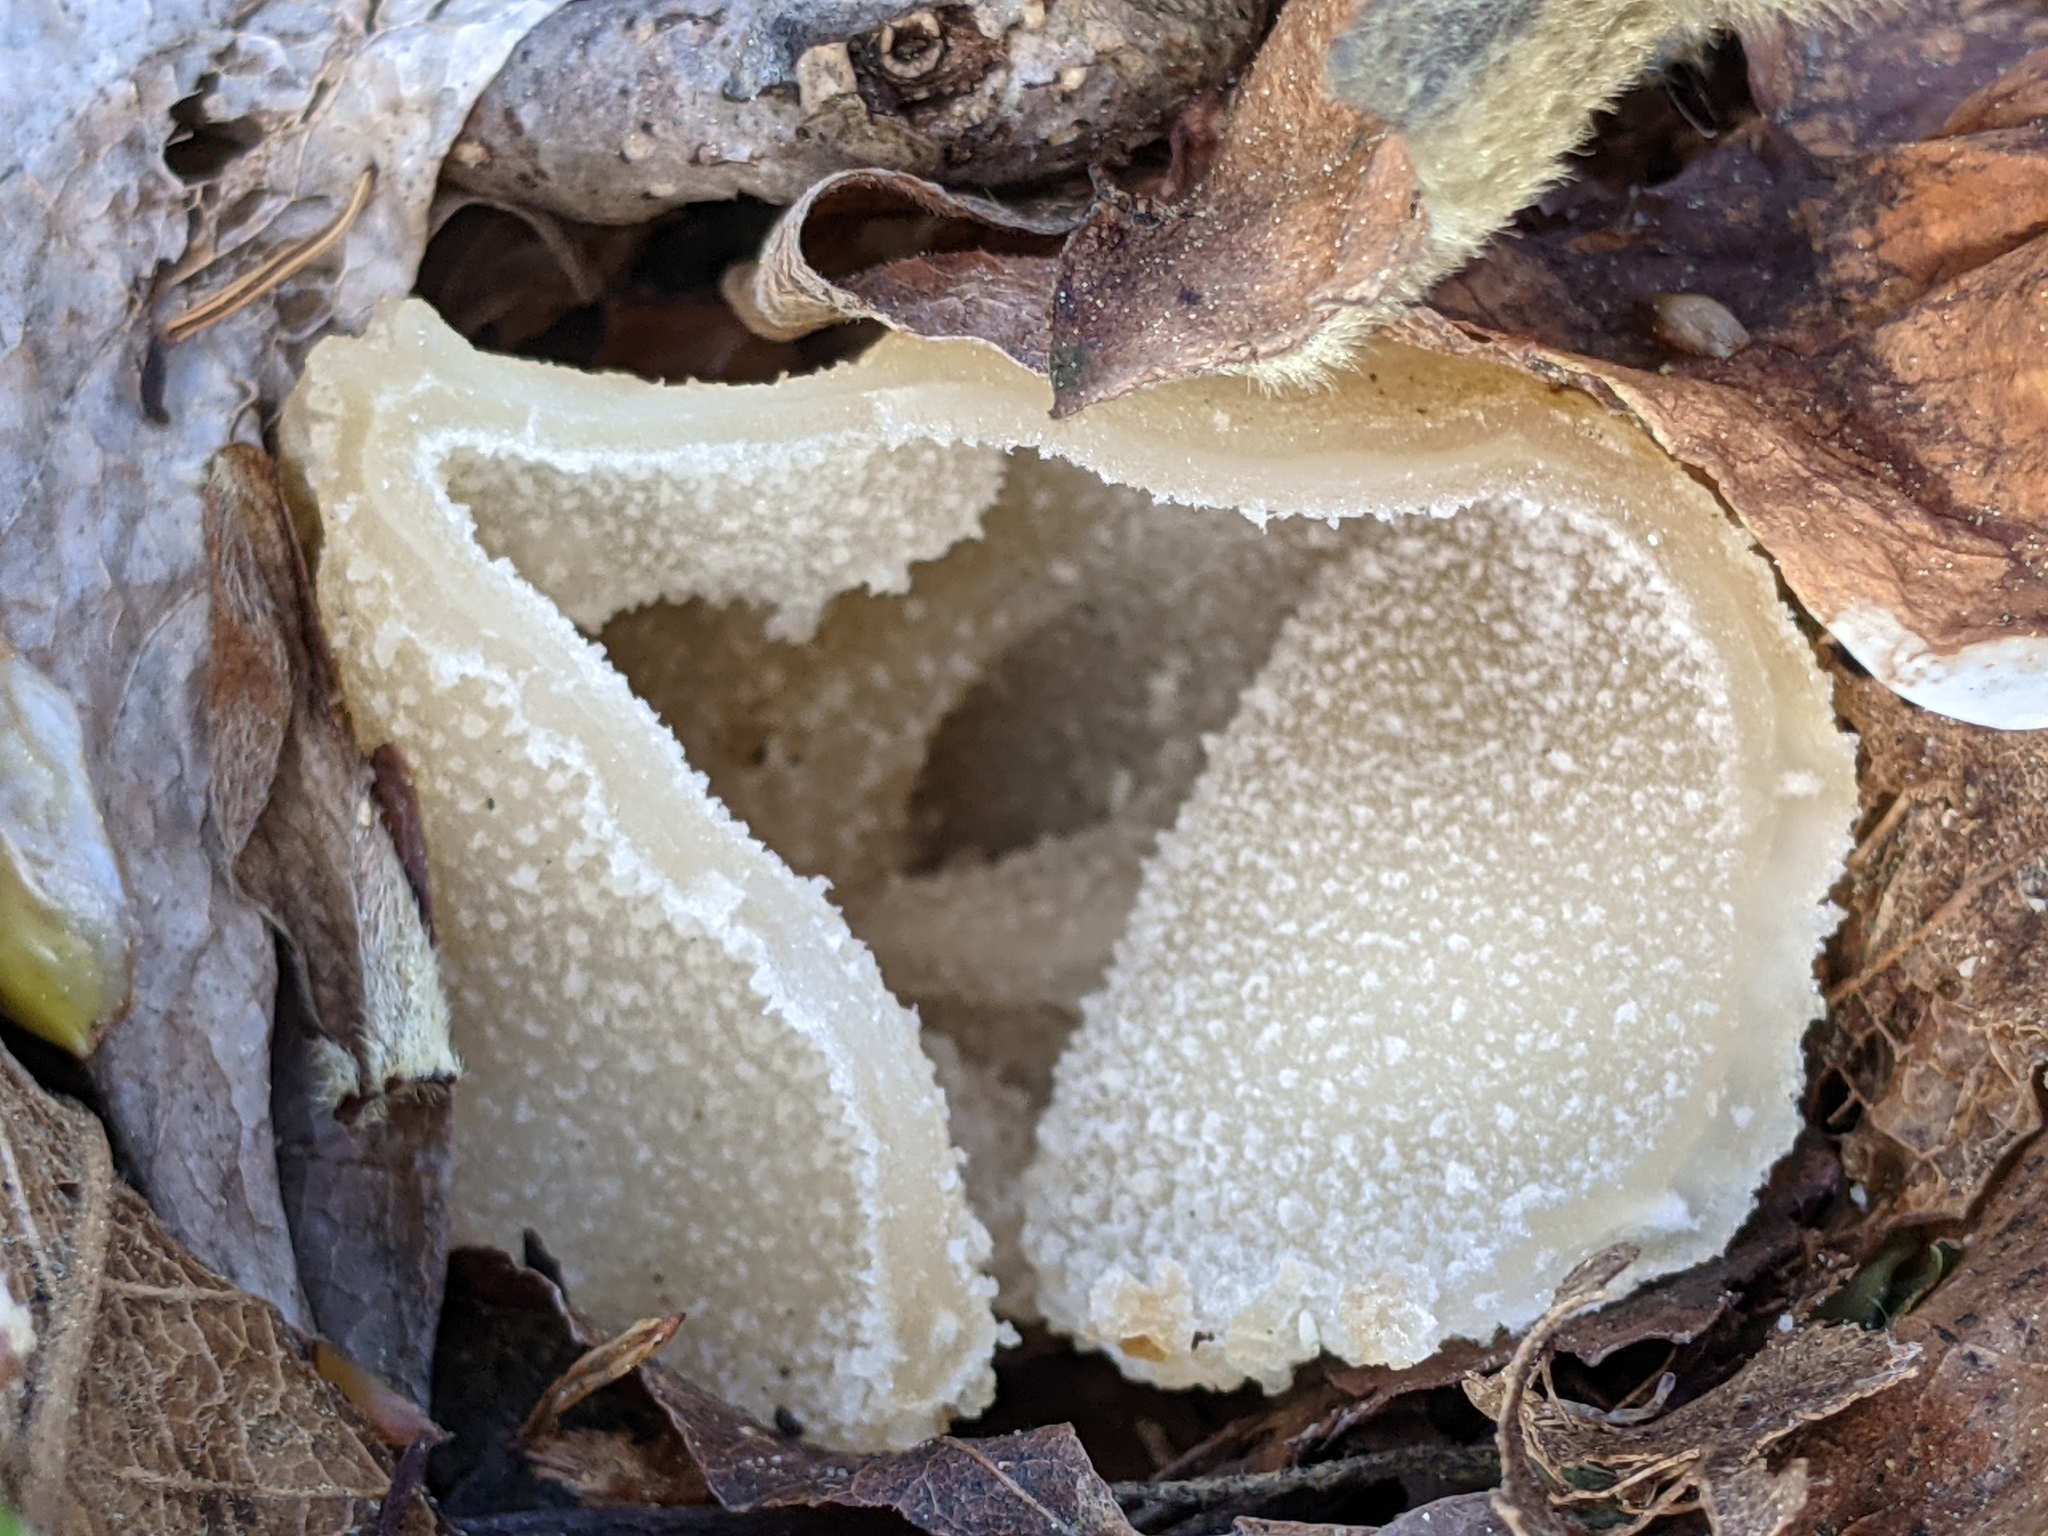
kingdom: Fungi
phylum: Ascomycota
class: Pezizomycetes
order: Pezizales
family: Morchellaceae
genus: Morchella
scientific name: Morchella punctipes
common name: Half-free morel
